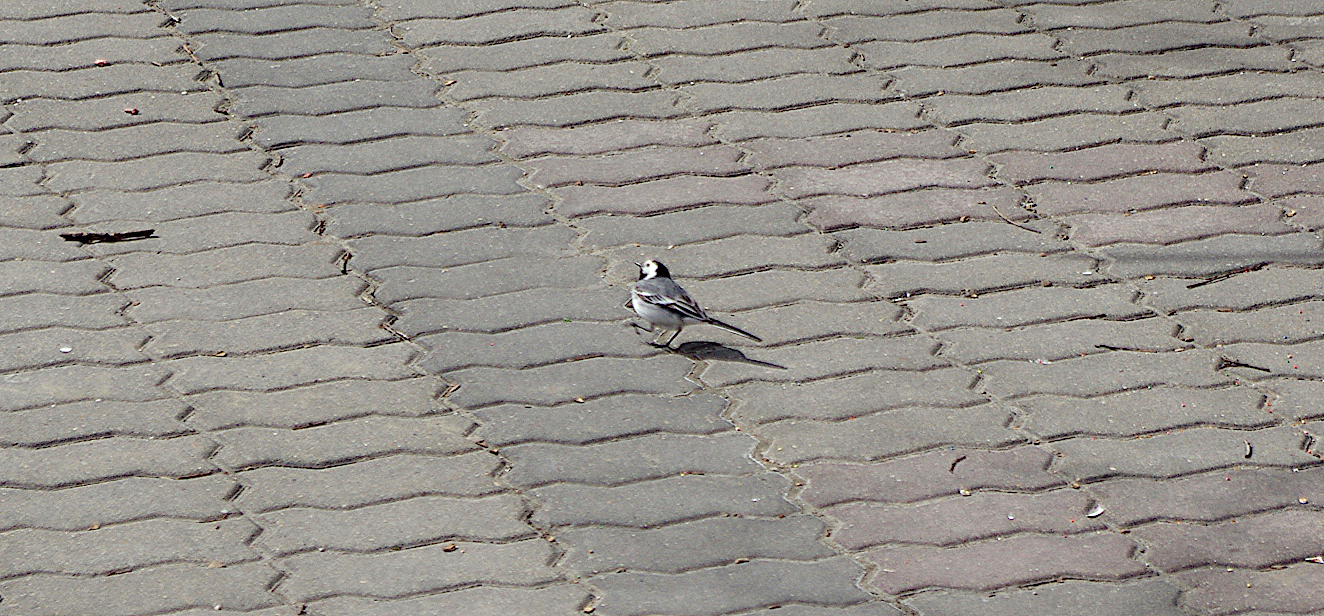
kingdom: Animalia
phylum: Chordata
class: Aves
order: Passeriformes
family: Motacillidae
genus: Motacilla
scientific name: Motacilla alba
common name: White wagtail
